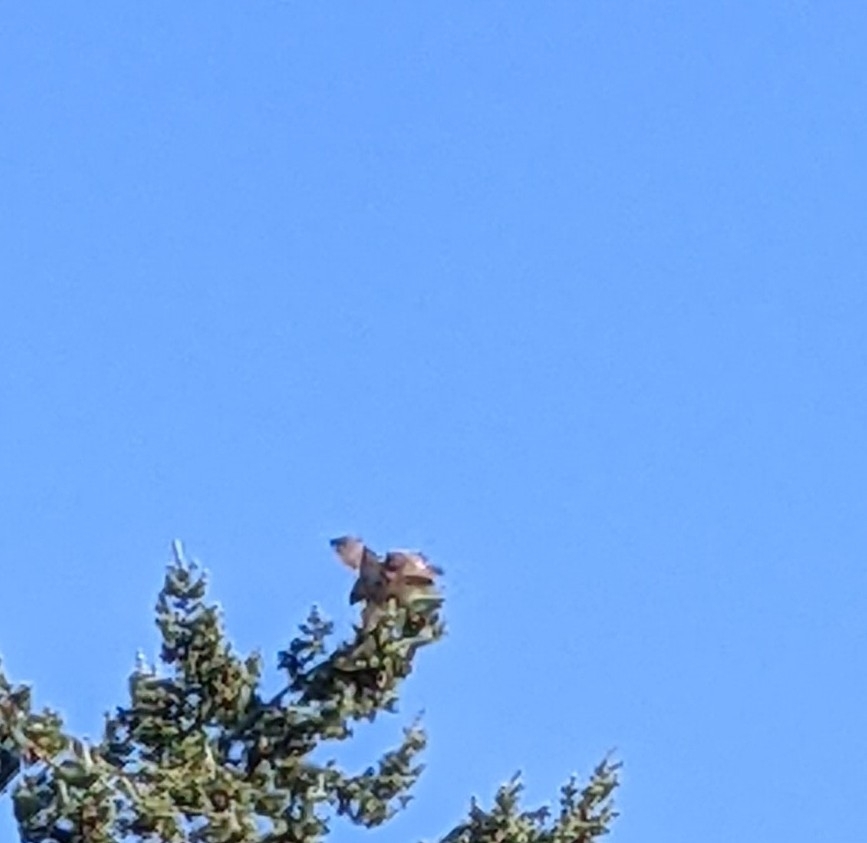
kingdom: Animalia
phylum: Chordata
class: Aves
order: Accipitriformes
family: Accipitridae
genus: Buteo
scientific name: Buteo jamaicensis
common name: Red-tailed hawk
